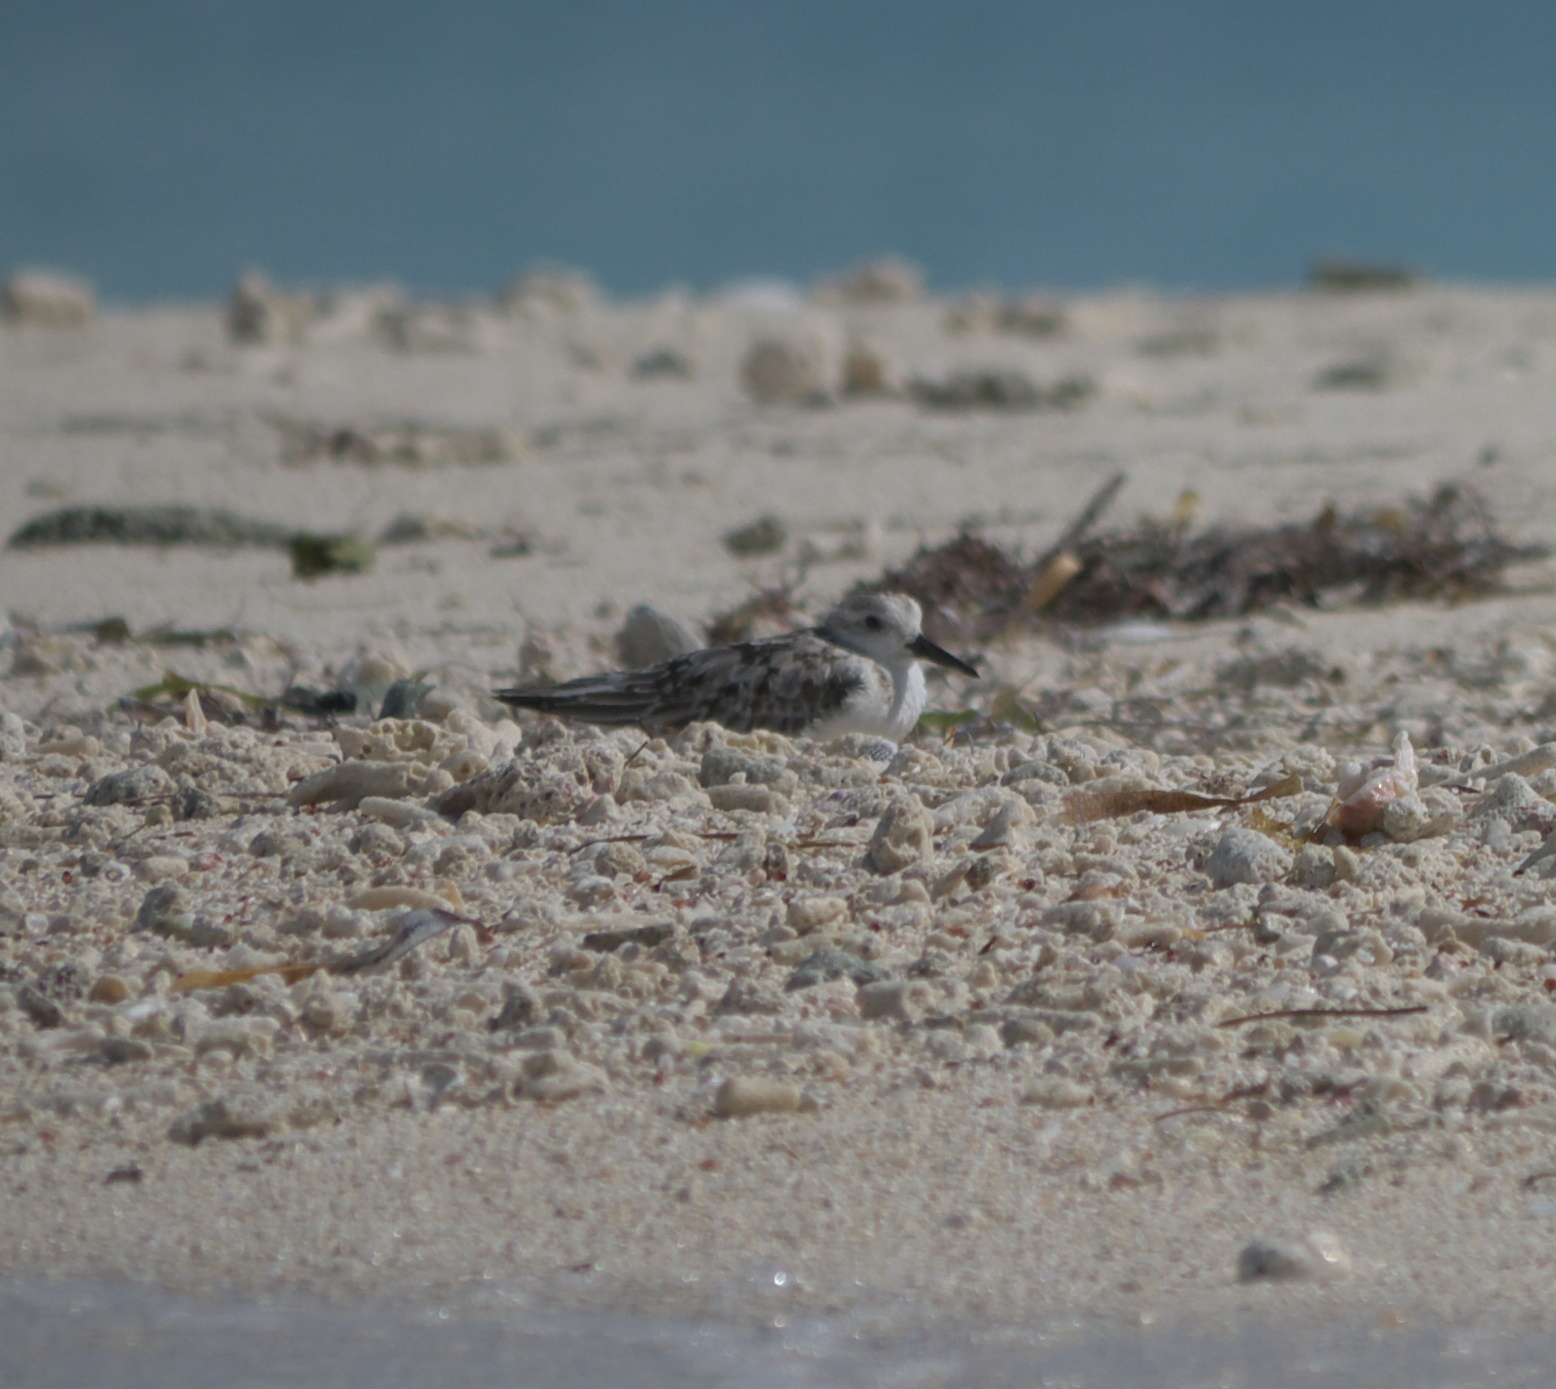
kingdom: Animalia
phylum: Chordata
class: Aves
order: Charadriiformes
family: Scolopacidae
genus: Calidris
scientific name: Calidris alba
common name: Sanderling
